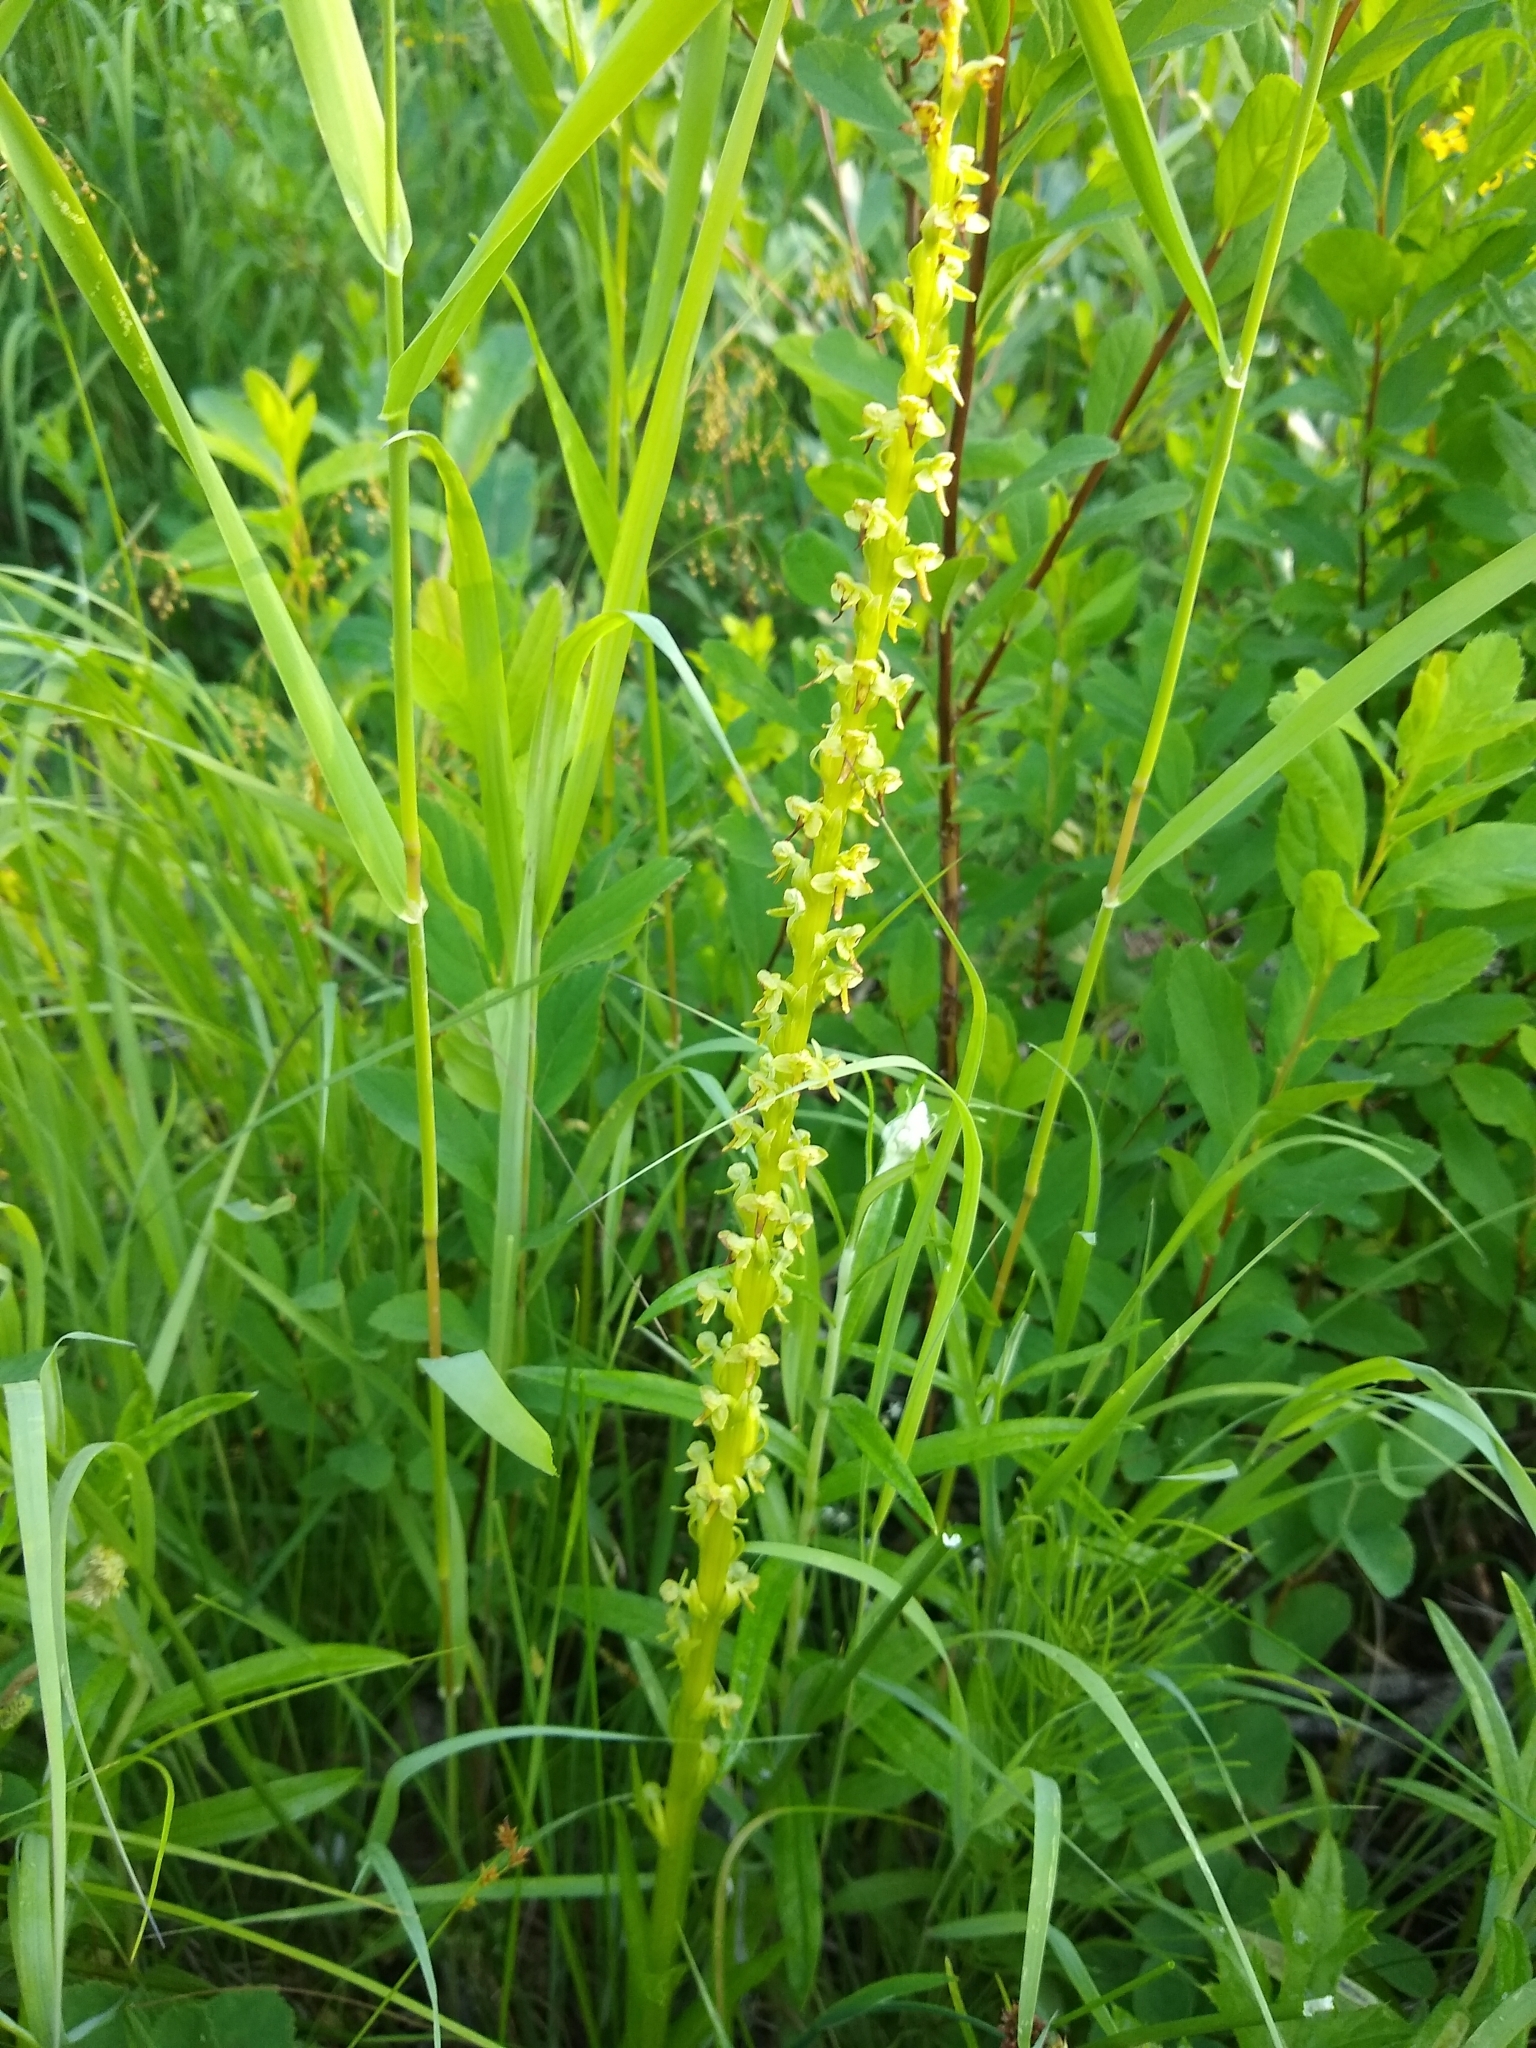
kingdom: Plantae
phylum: Tracheophyta
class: Liliopsida
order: Asparagales
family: Orchidaceae
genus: Platanthera
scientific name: Platanthera stricta
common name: Slender bog orchid
